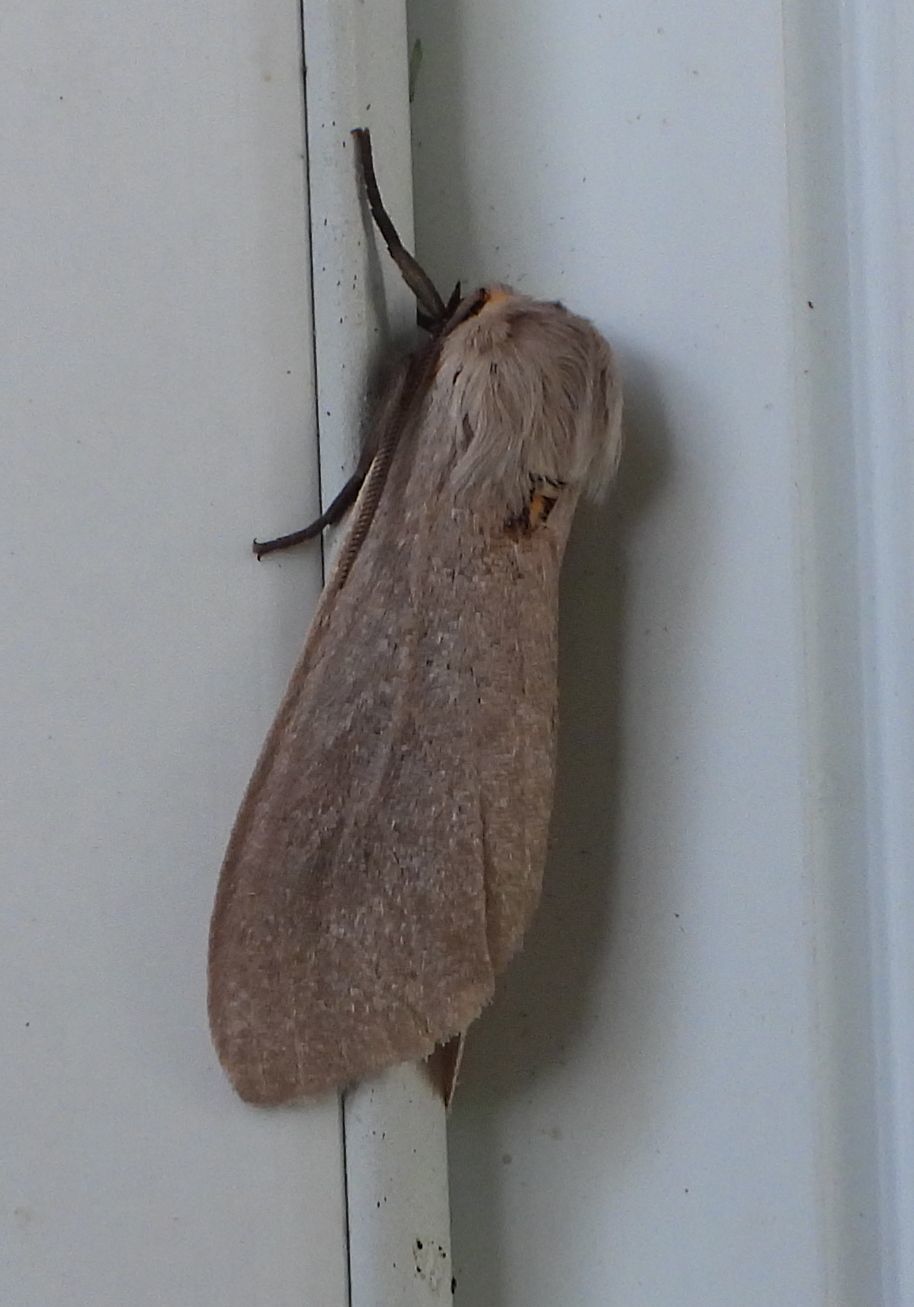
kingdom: Animalia
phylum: Arthropoda
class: Insecta
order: Lepidoptera
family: Erebidae
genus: Euchaetes
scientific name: Euchaetes egle
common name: Milkweed tussock moth
